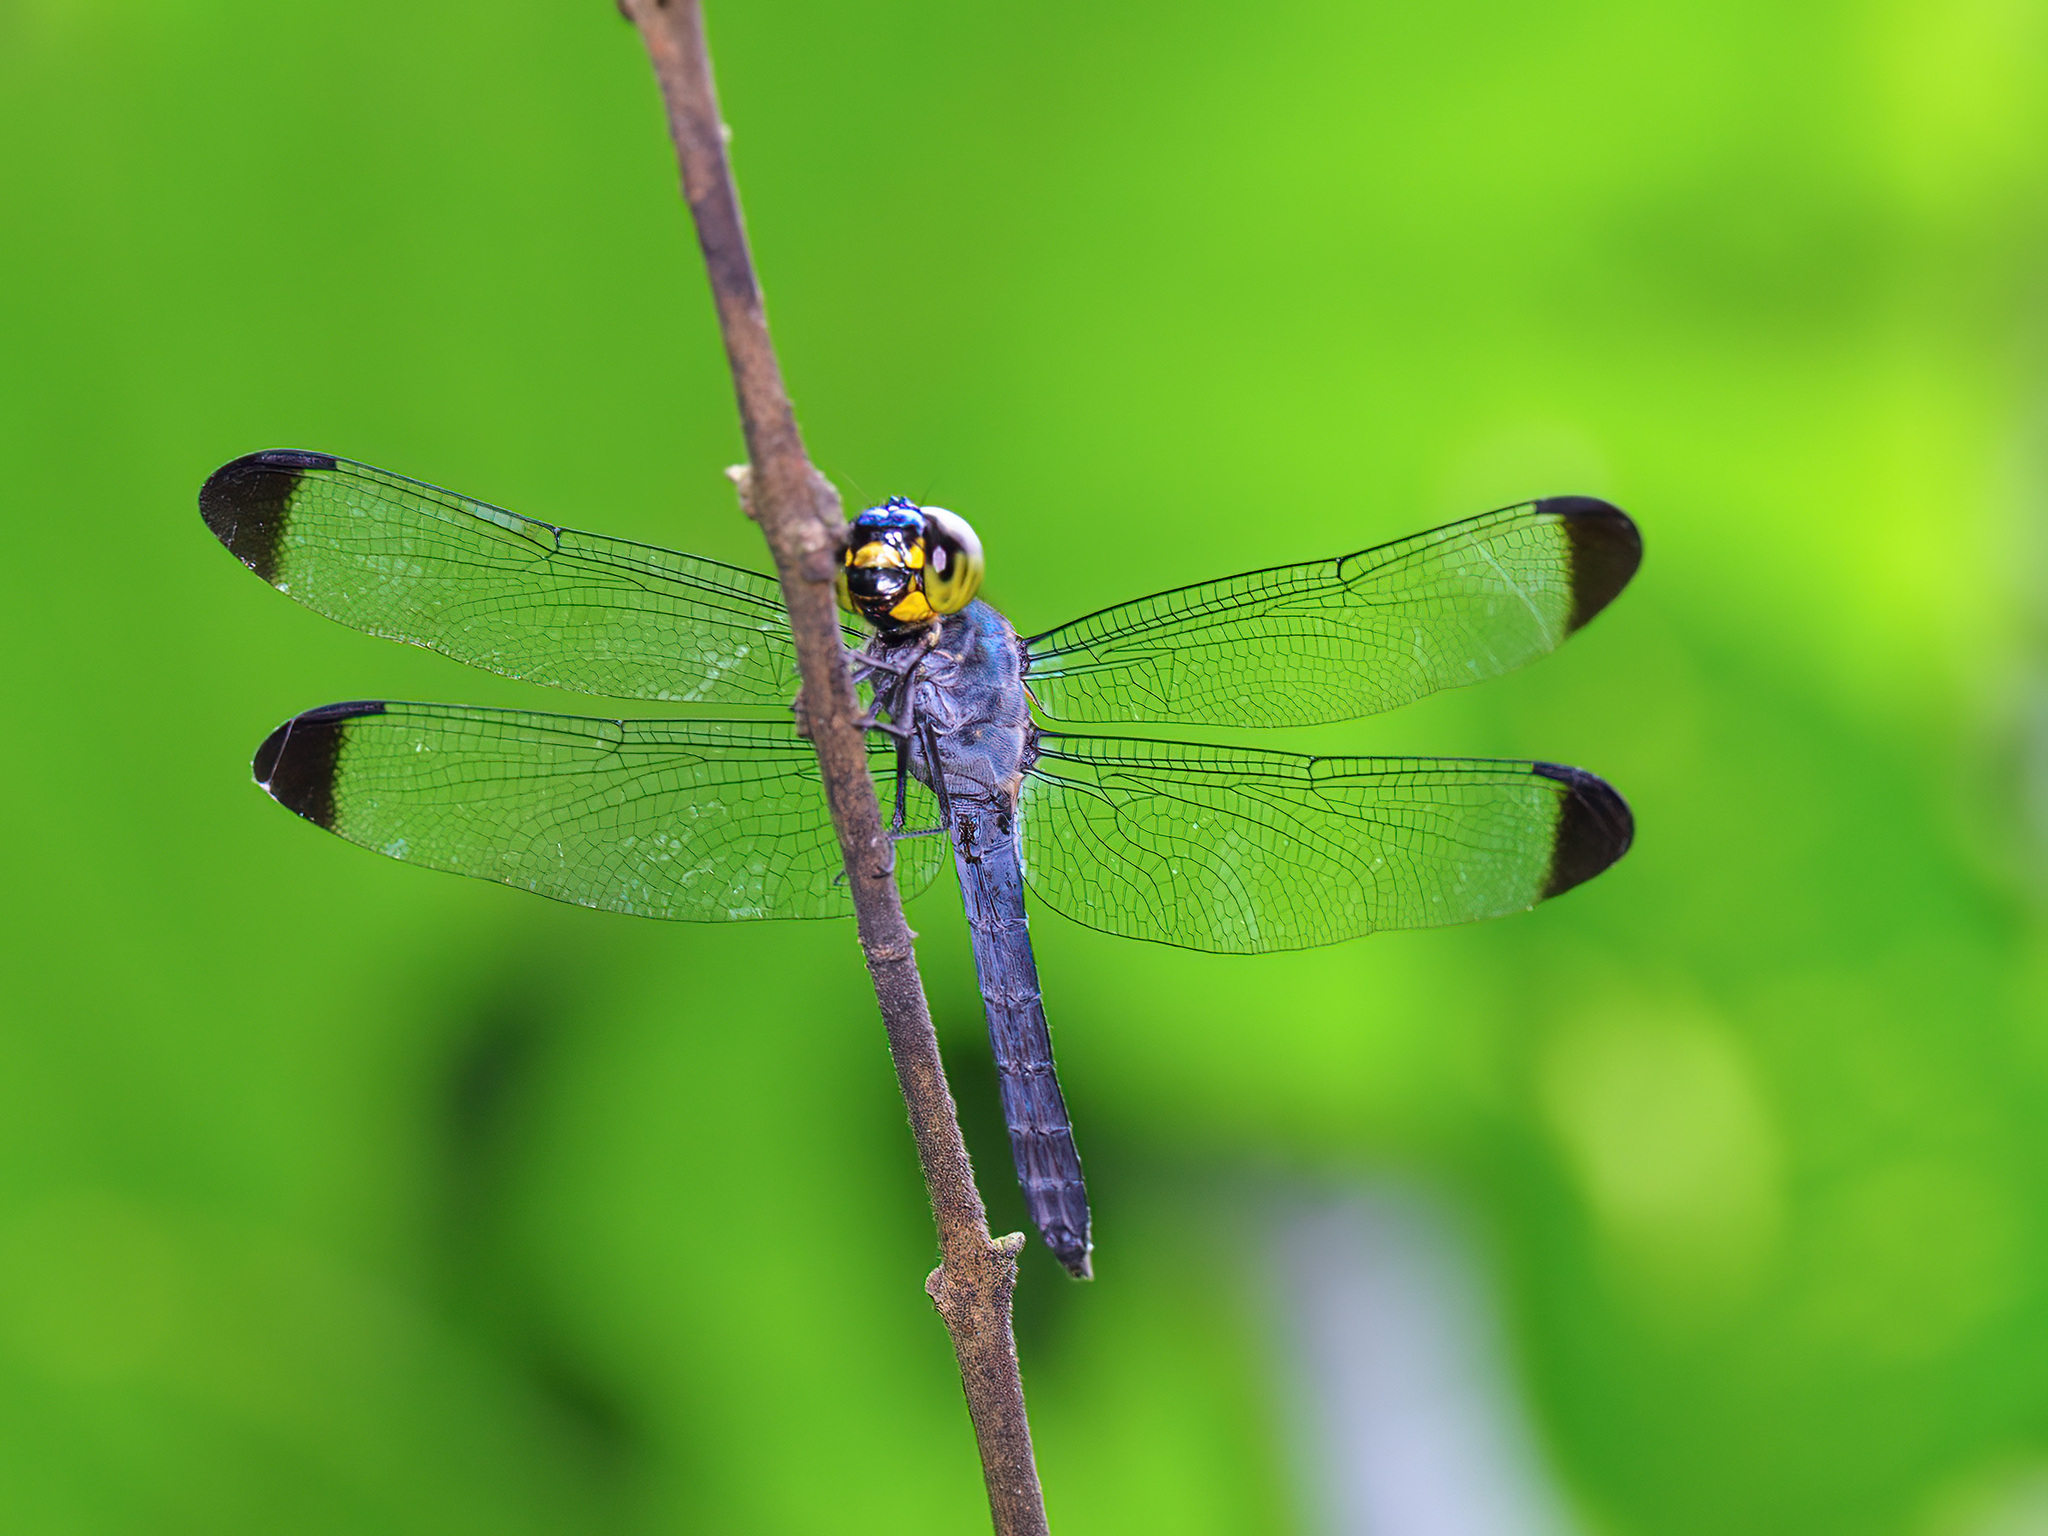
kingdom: Animalia
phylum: Arthropoda
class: Insecta
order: Odonata
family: Libellulidae
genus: Cratilla
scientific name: Cratilla metallica
